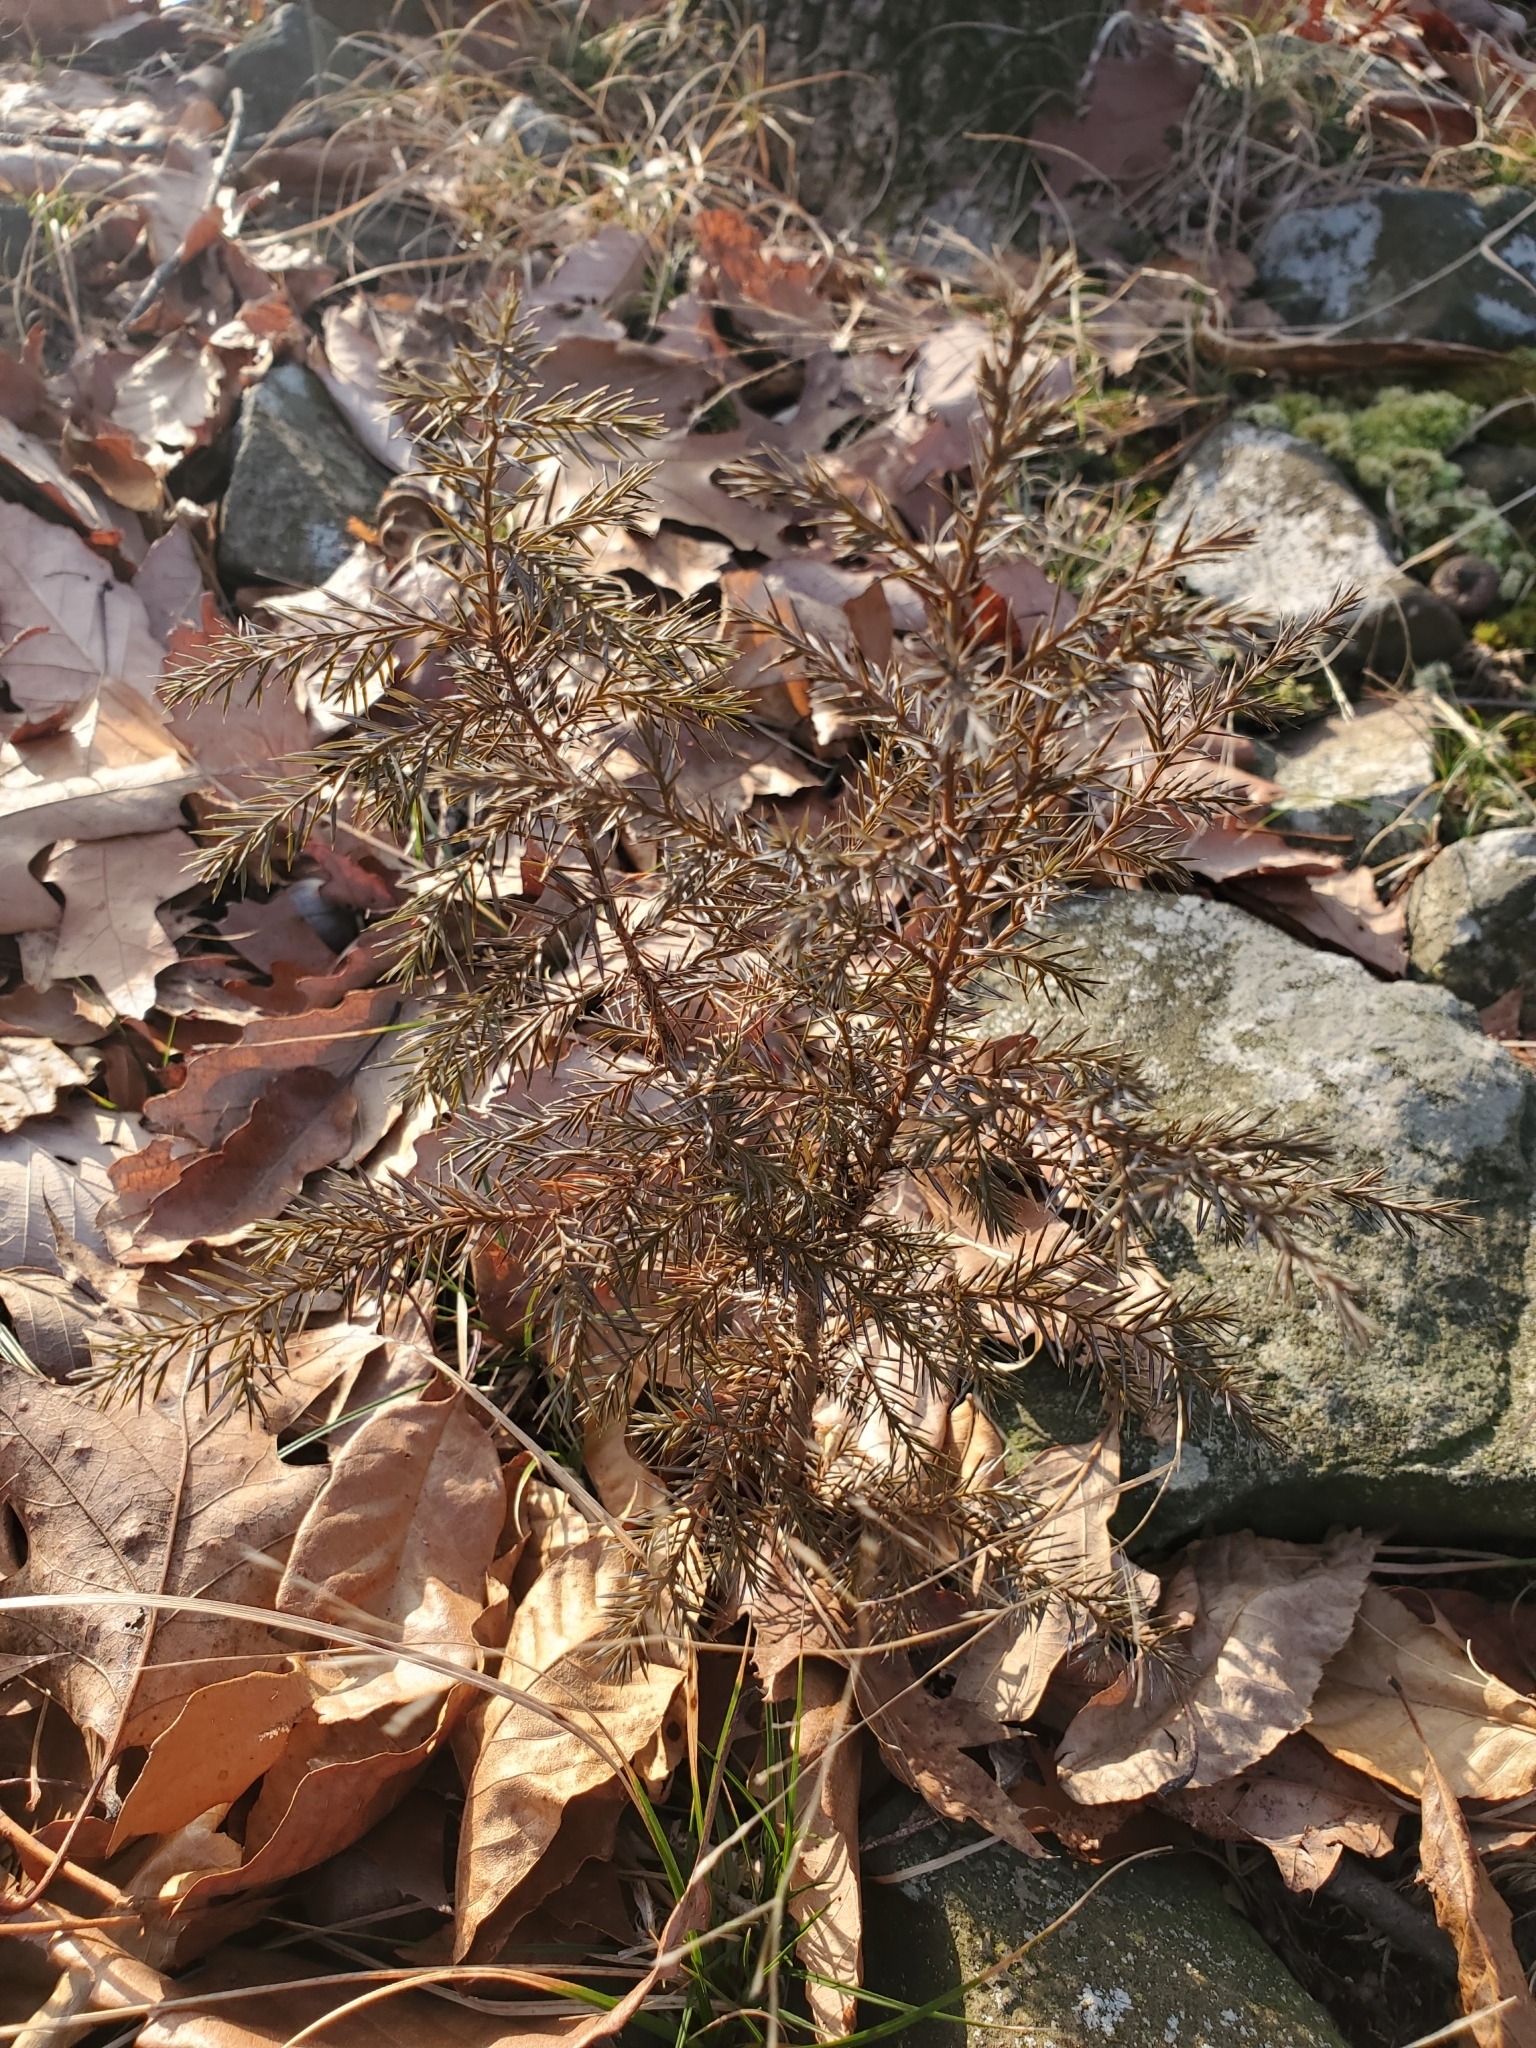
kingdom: Plantae
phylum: Tracheophyta
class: Pinopsida
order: Pinales
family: Cupressaceae
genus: Juniperus
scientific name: Juniperus virginiana
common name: Red juniper
